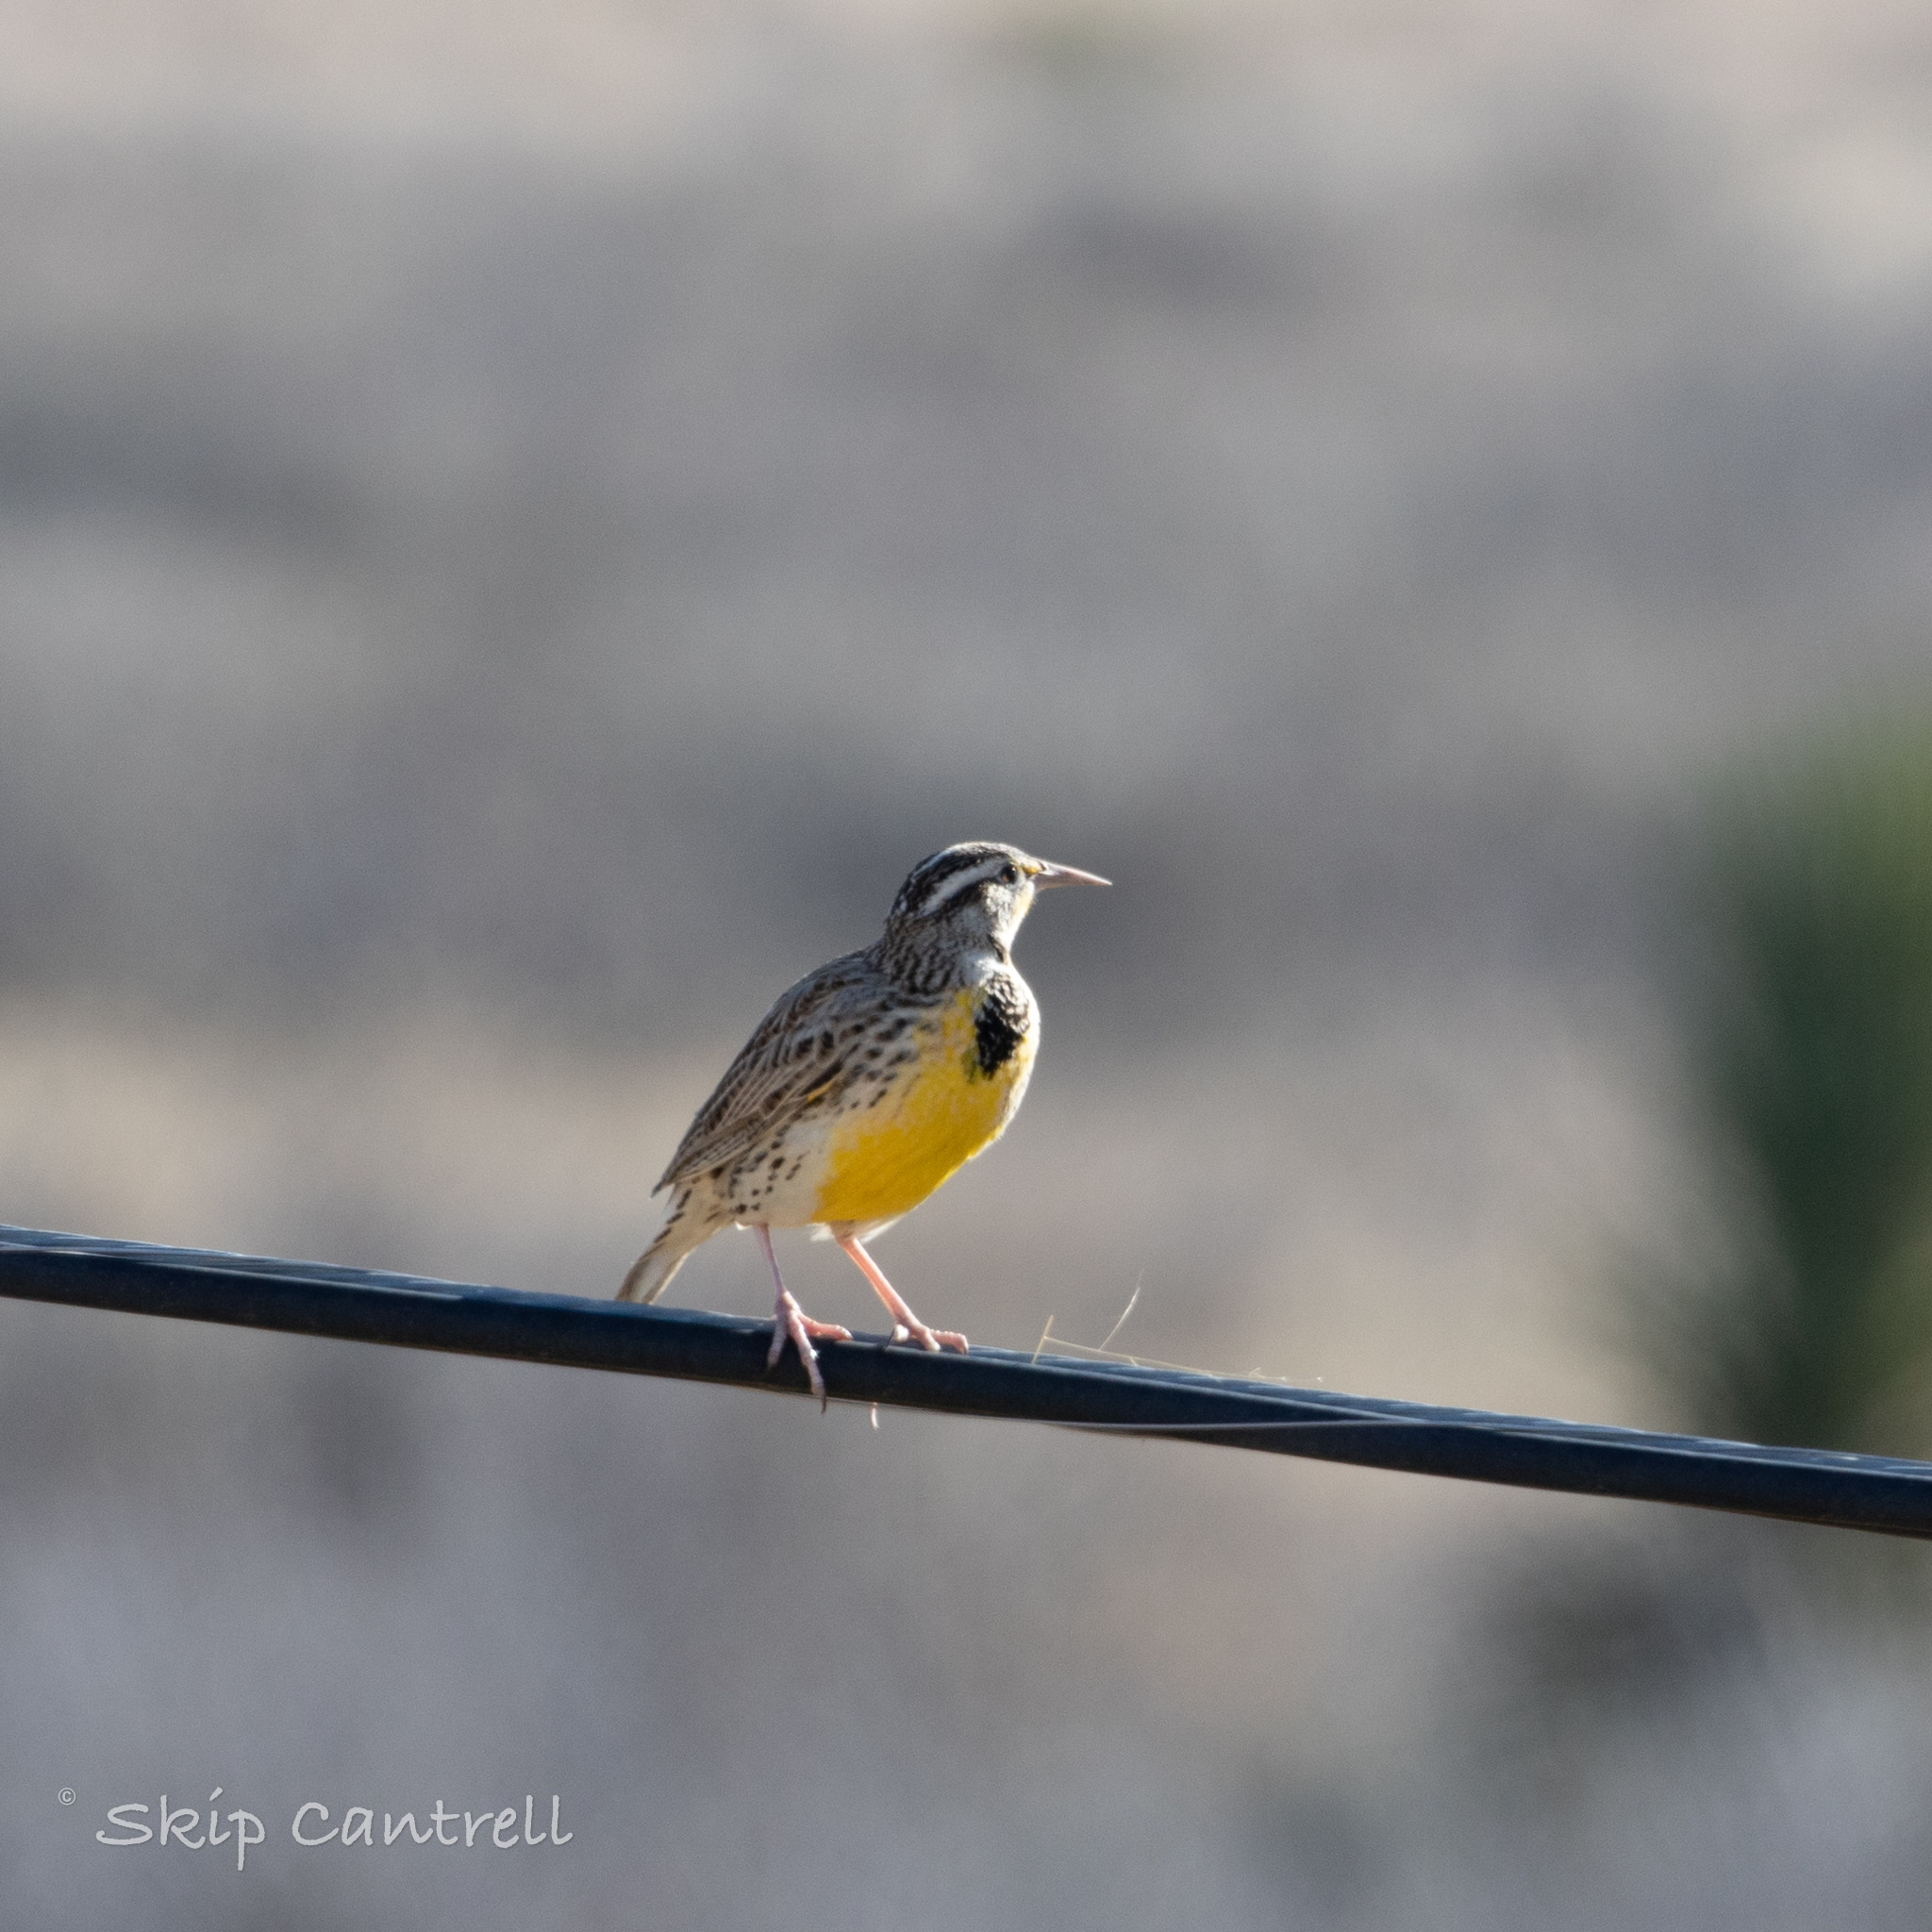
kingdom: Animalia
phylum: Chordata
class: Aves
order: Passeriformes
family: Icteridae
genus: Sturnella
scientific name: Sturnella neglecta
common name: Western meadowlark
